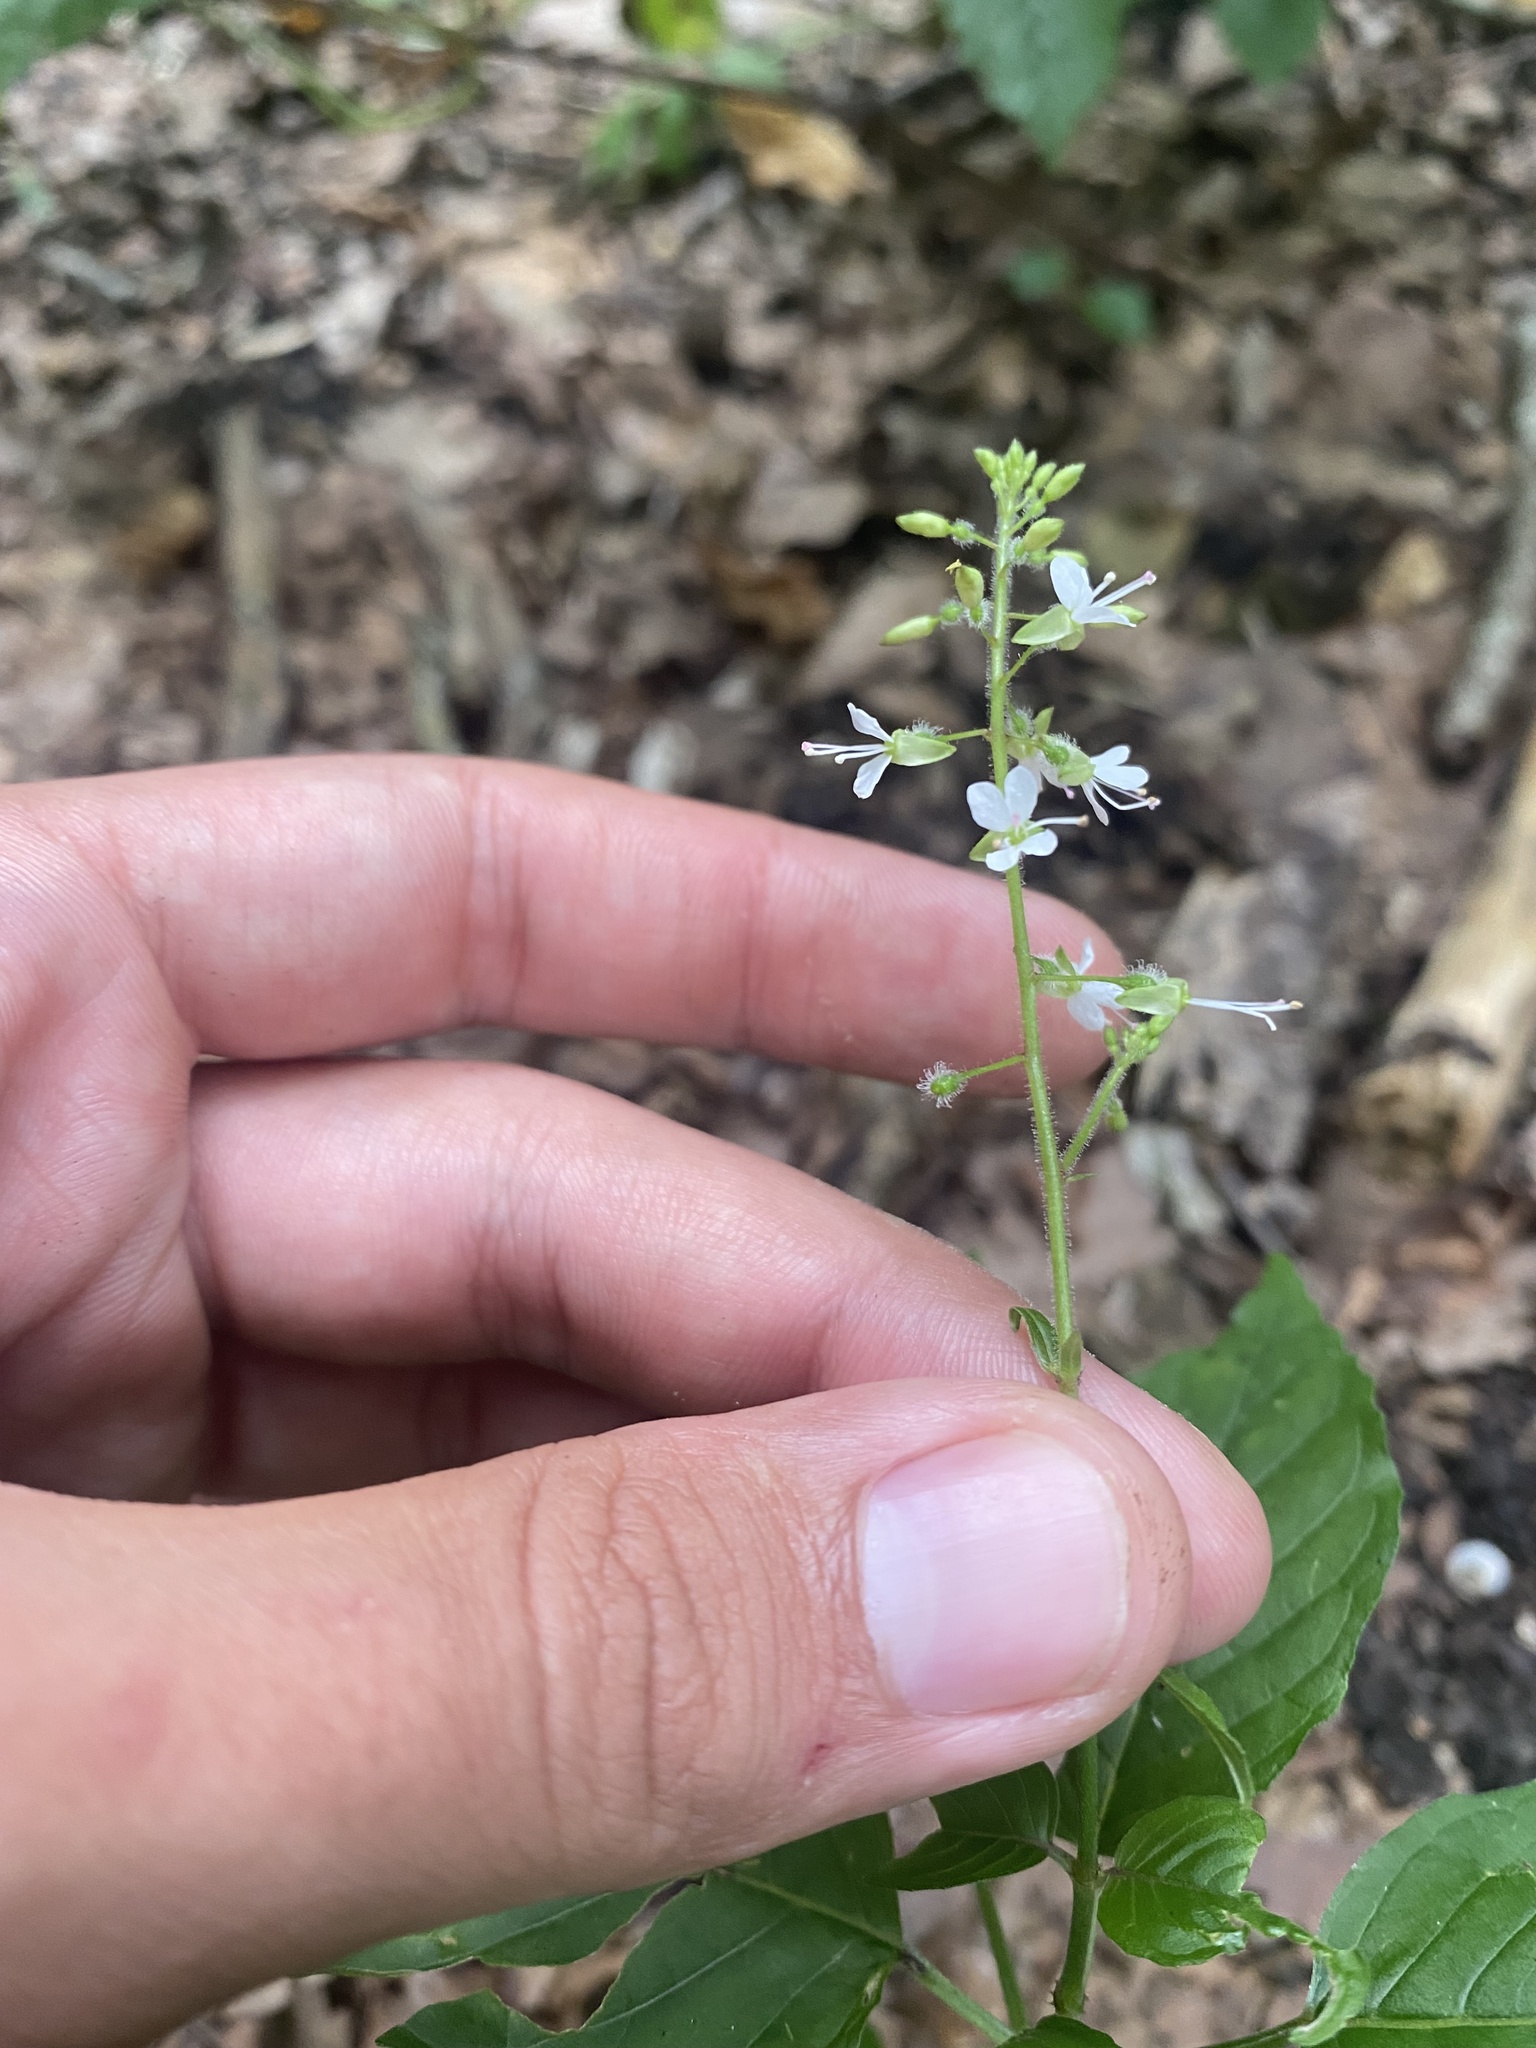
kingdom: Plantae
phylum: Tracheophyta
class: Magnoliopsida
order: Myrtales
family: Onagraceae
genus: Circaea
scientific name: Circaea lutetiana
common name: Enchanter's-nightshade
